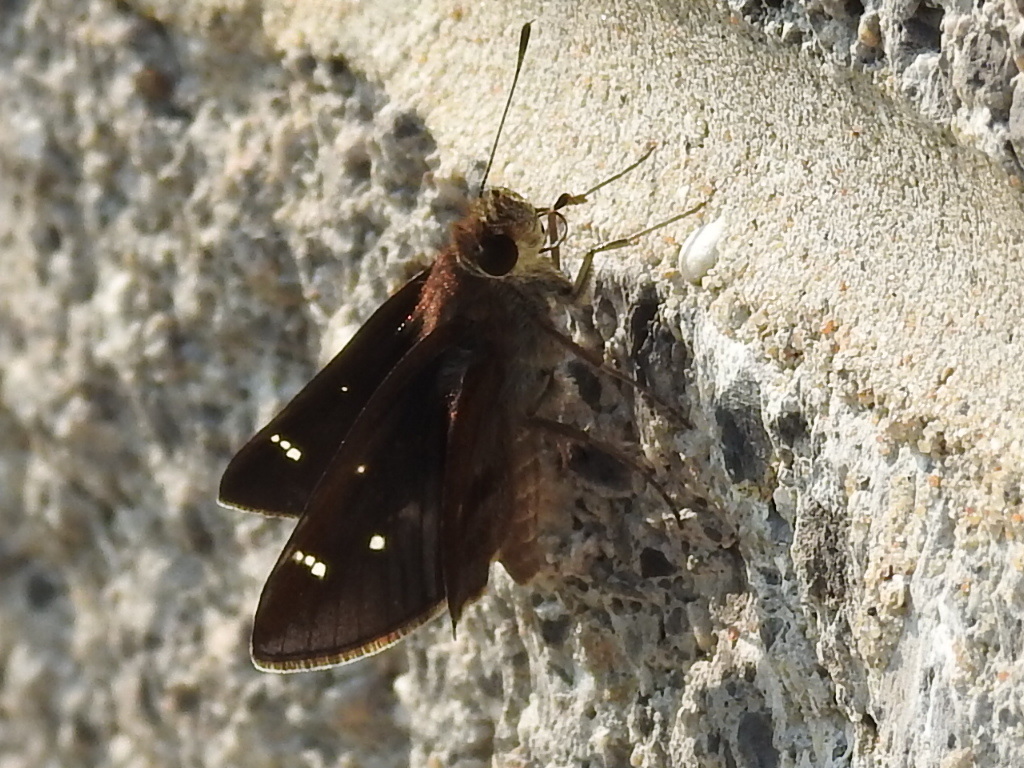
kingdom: Animalia
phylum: Arthropoda
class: Insecta
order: Lepidoptera
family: Hesperiidae
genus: Lerema
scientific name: Lerema accius
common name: Clouded skipper
